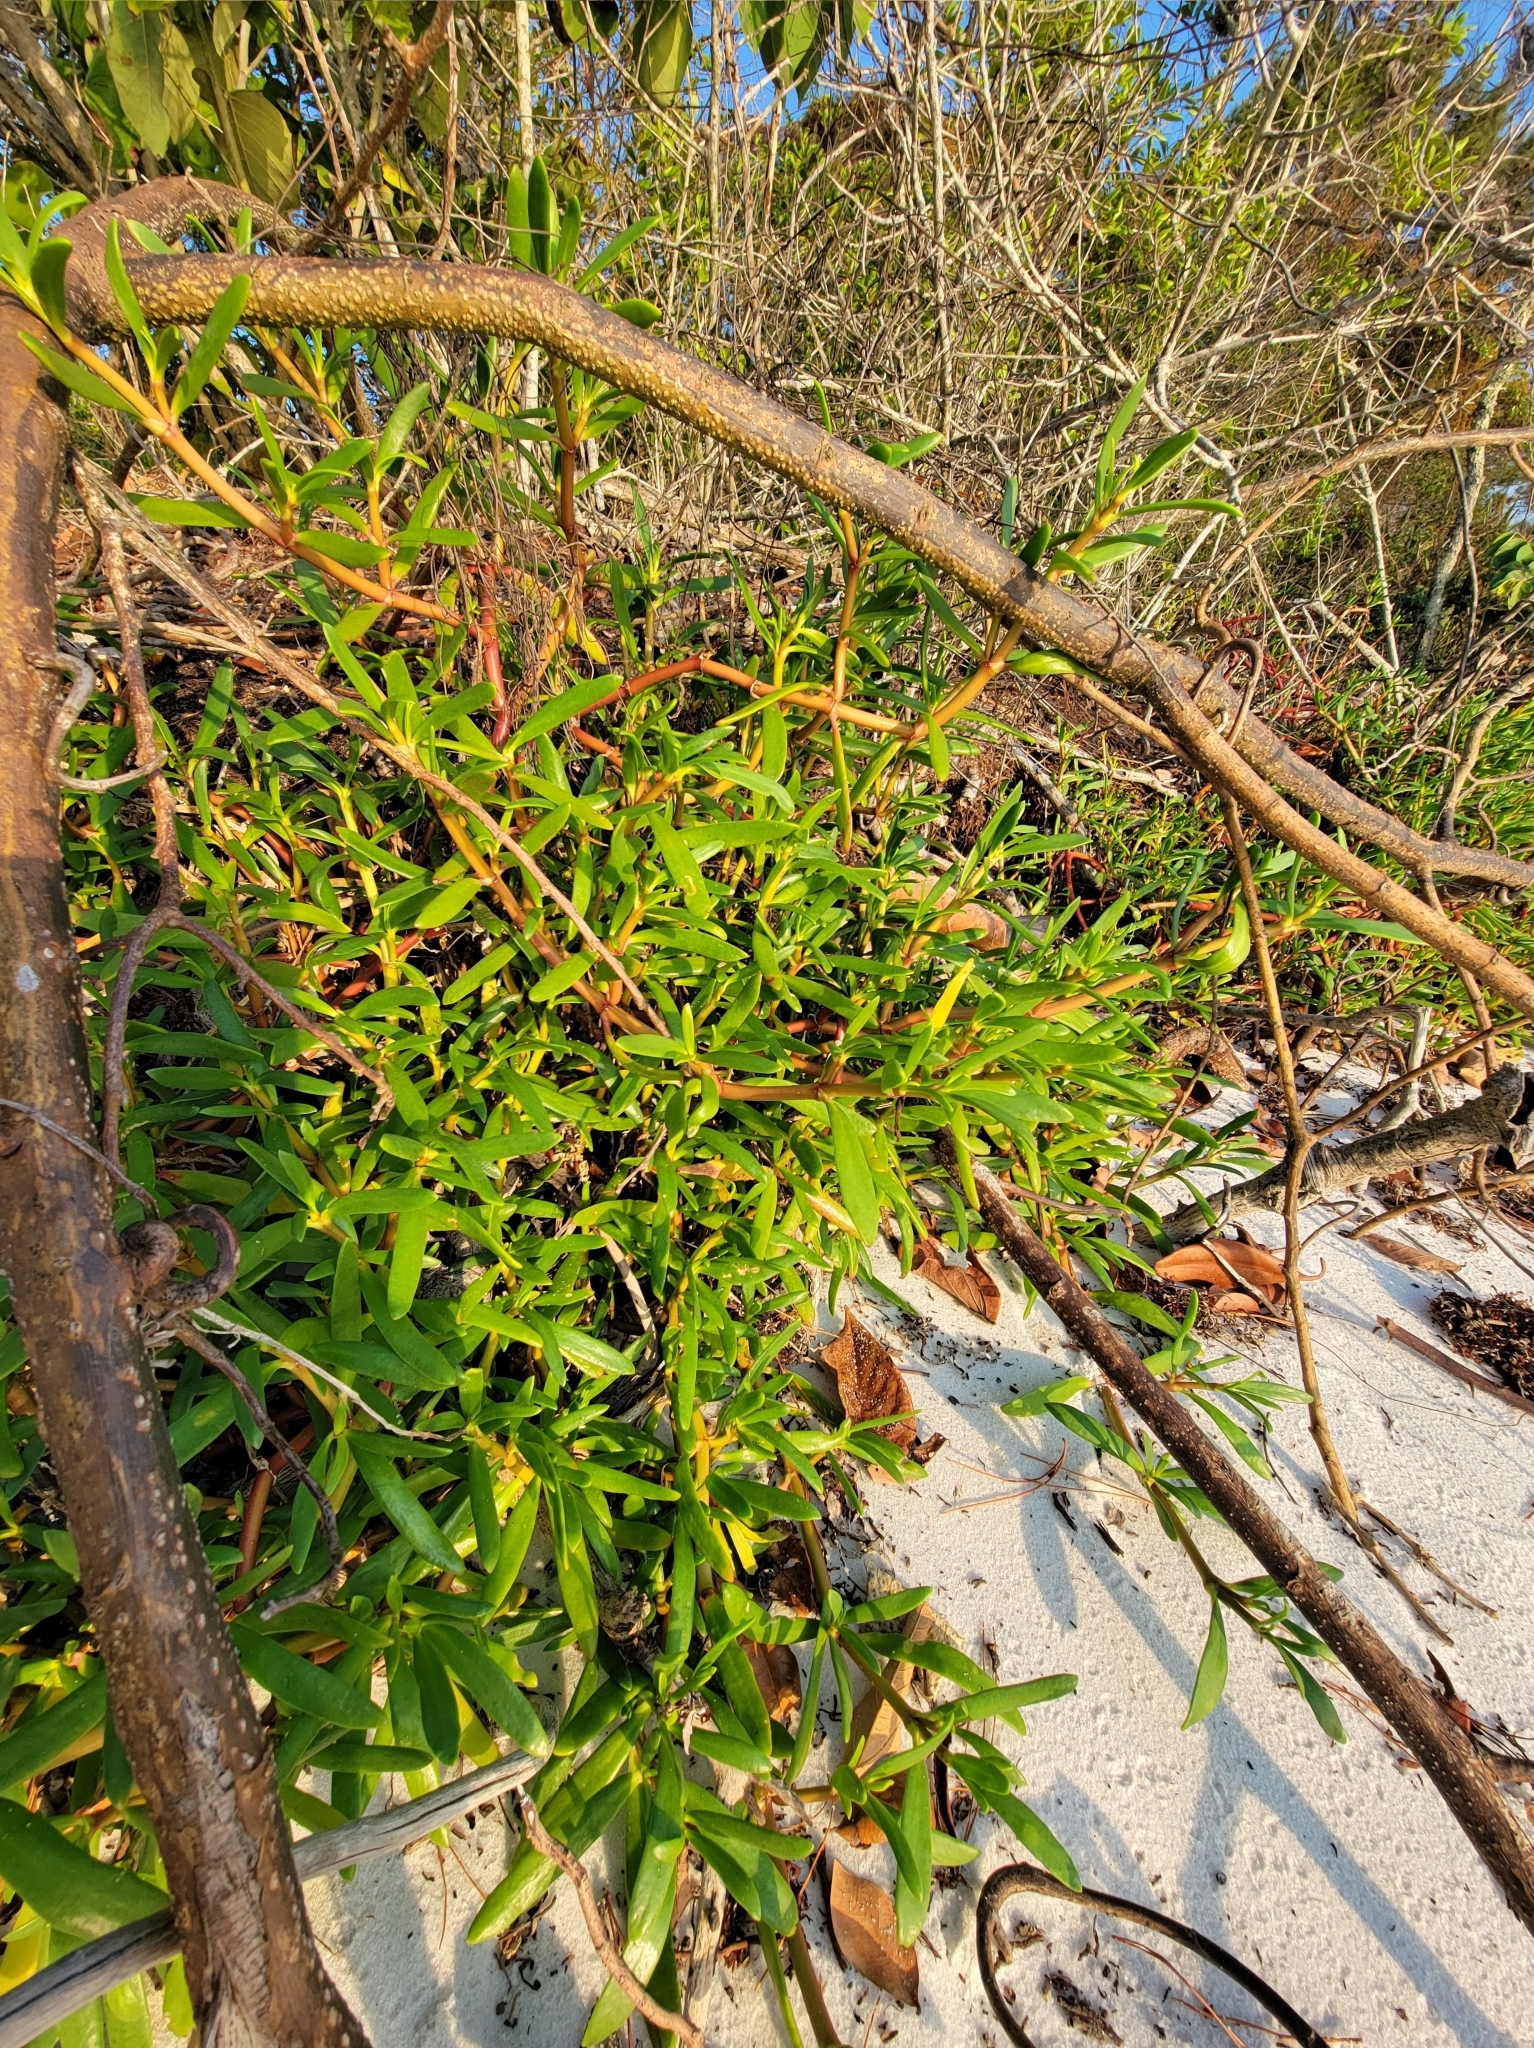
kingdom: Plantae
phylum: Tracheophyta
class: Magnoliopsida
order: Caryophyllales
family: Aizoaceae
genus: Sesuvium
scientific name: Sesuvium portulacastrum
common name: Sea-purslane
